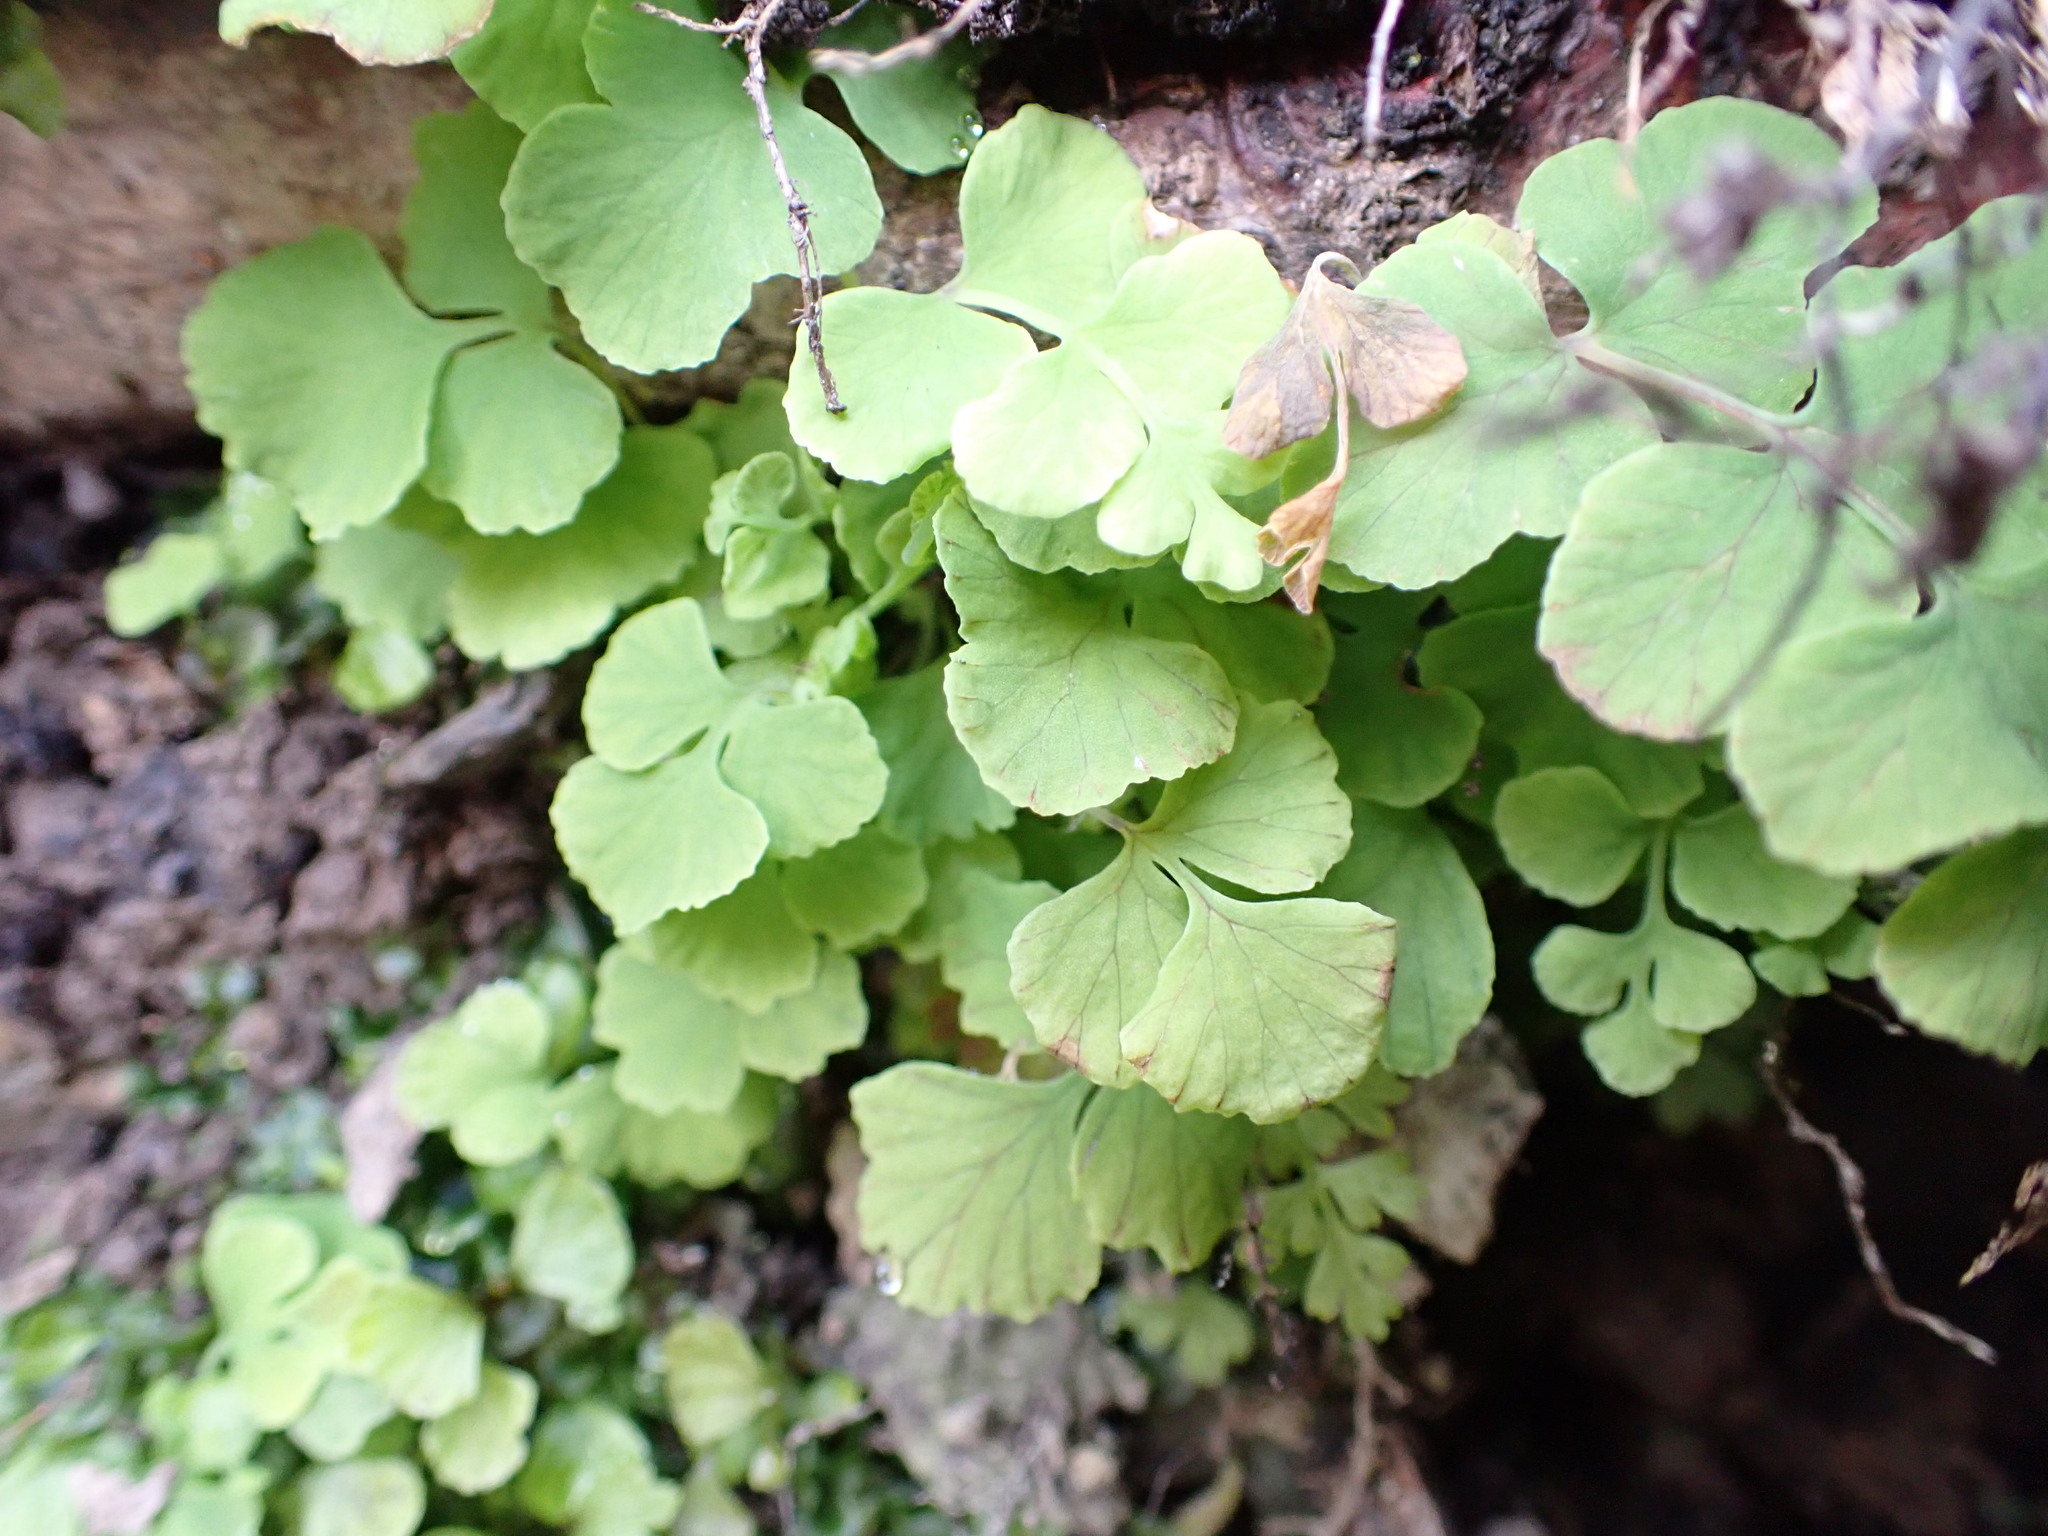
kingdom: Plantae
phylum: Tracheophyta
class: Polypodiopsida
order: Polypodiales
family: Dennstaedtiaceae
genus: Histiopteris
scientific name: Histiopteris incisa
